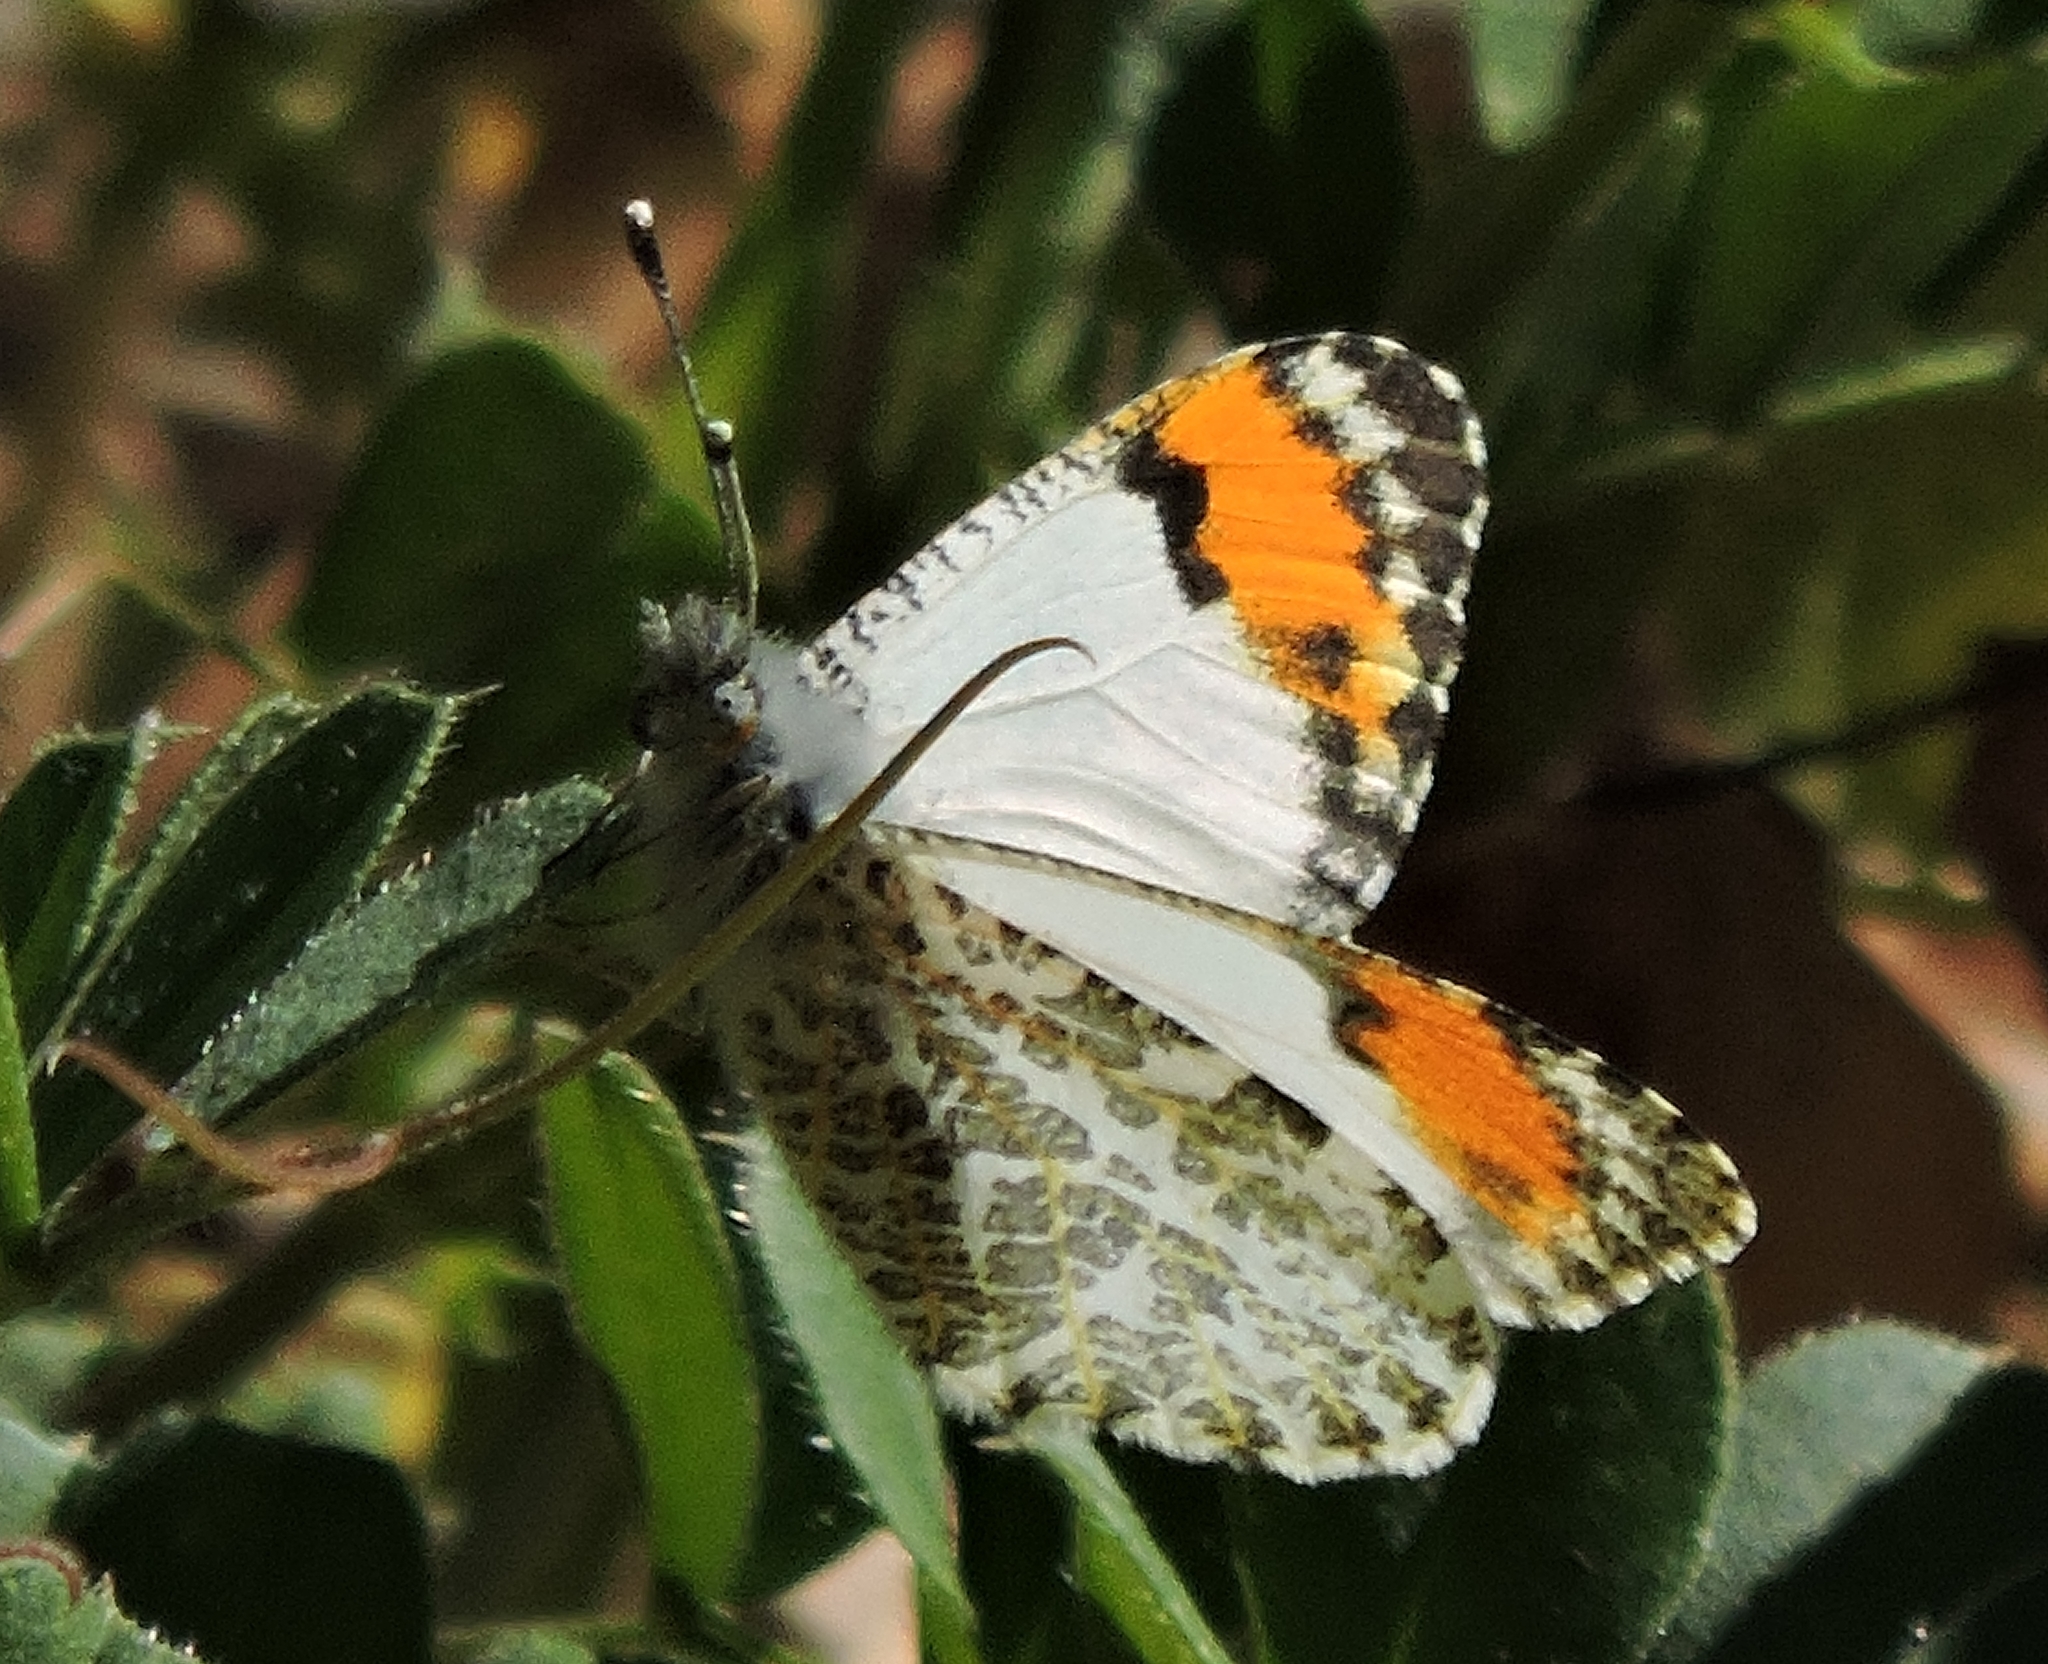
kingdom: Animalia
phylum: Arthropoda
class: Insecta
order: Lepidoptera
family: Pieridae
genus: Anthocharis
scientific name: Anthocharis sara
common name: Sara's orangetip
